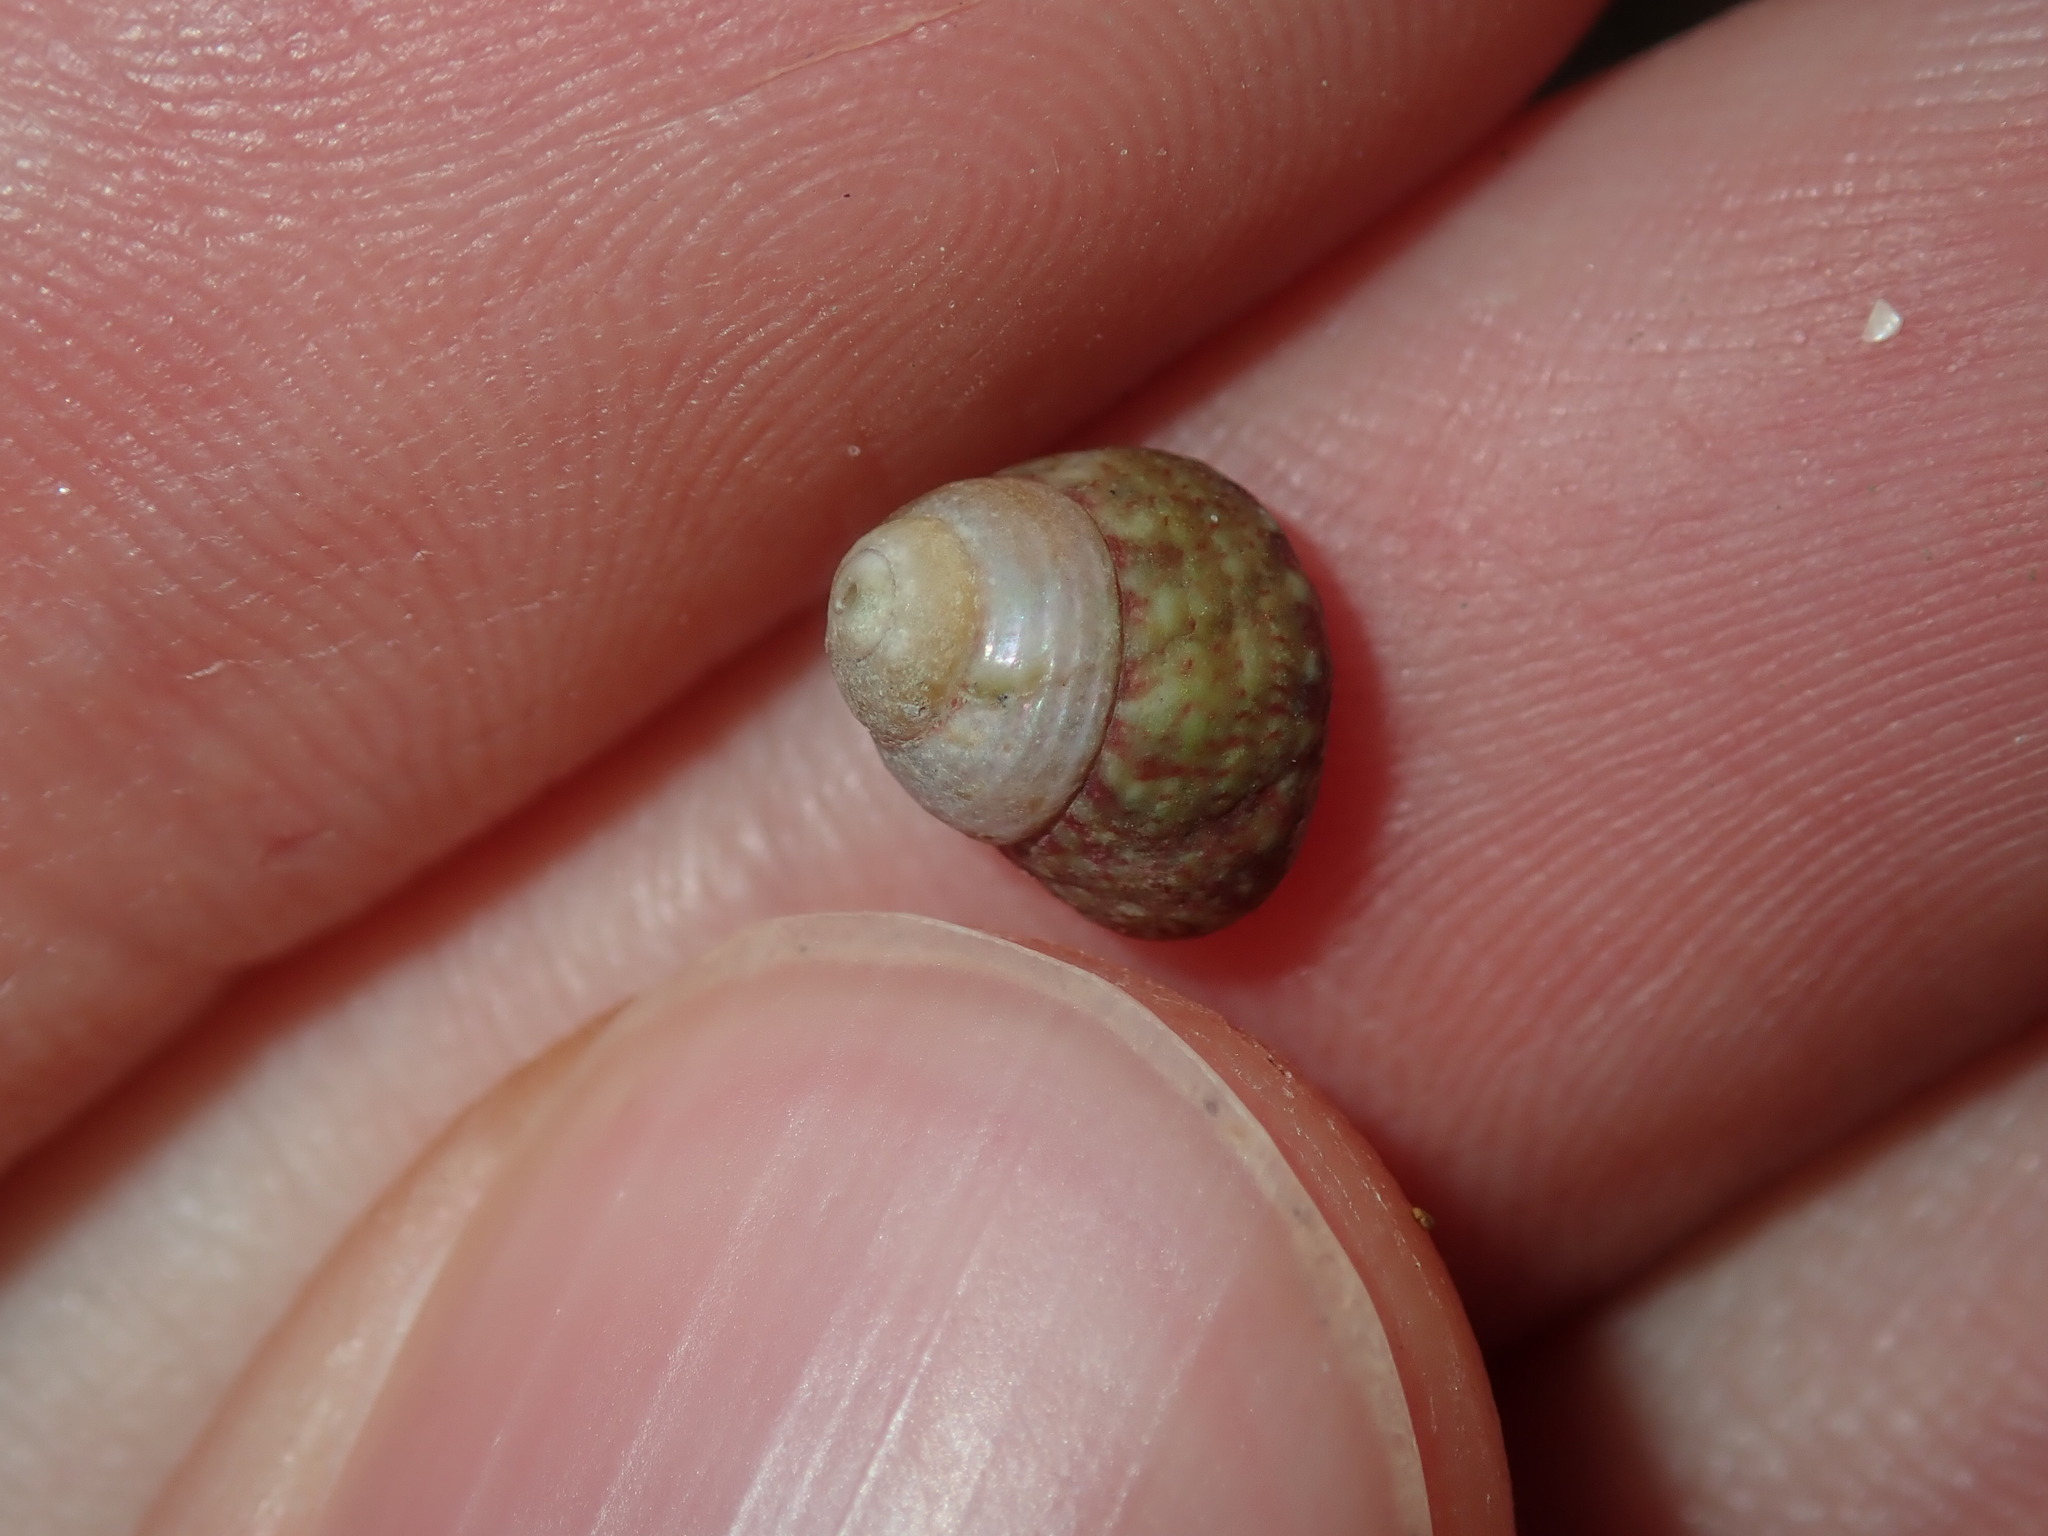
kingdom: Animalia
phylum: Mollusca
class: Gastropoda
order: Trochida
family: Trochidae
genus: Cantharidella
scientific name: Cantharidella picturata
